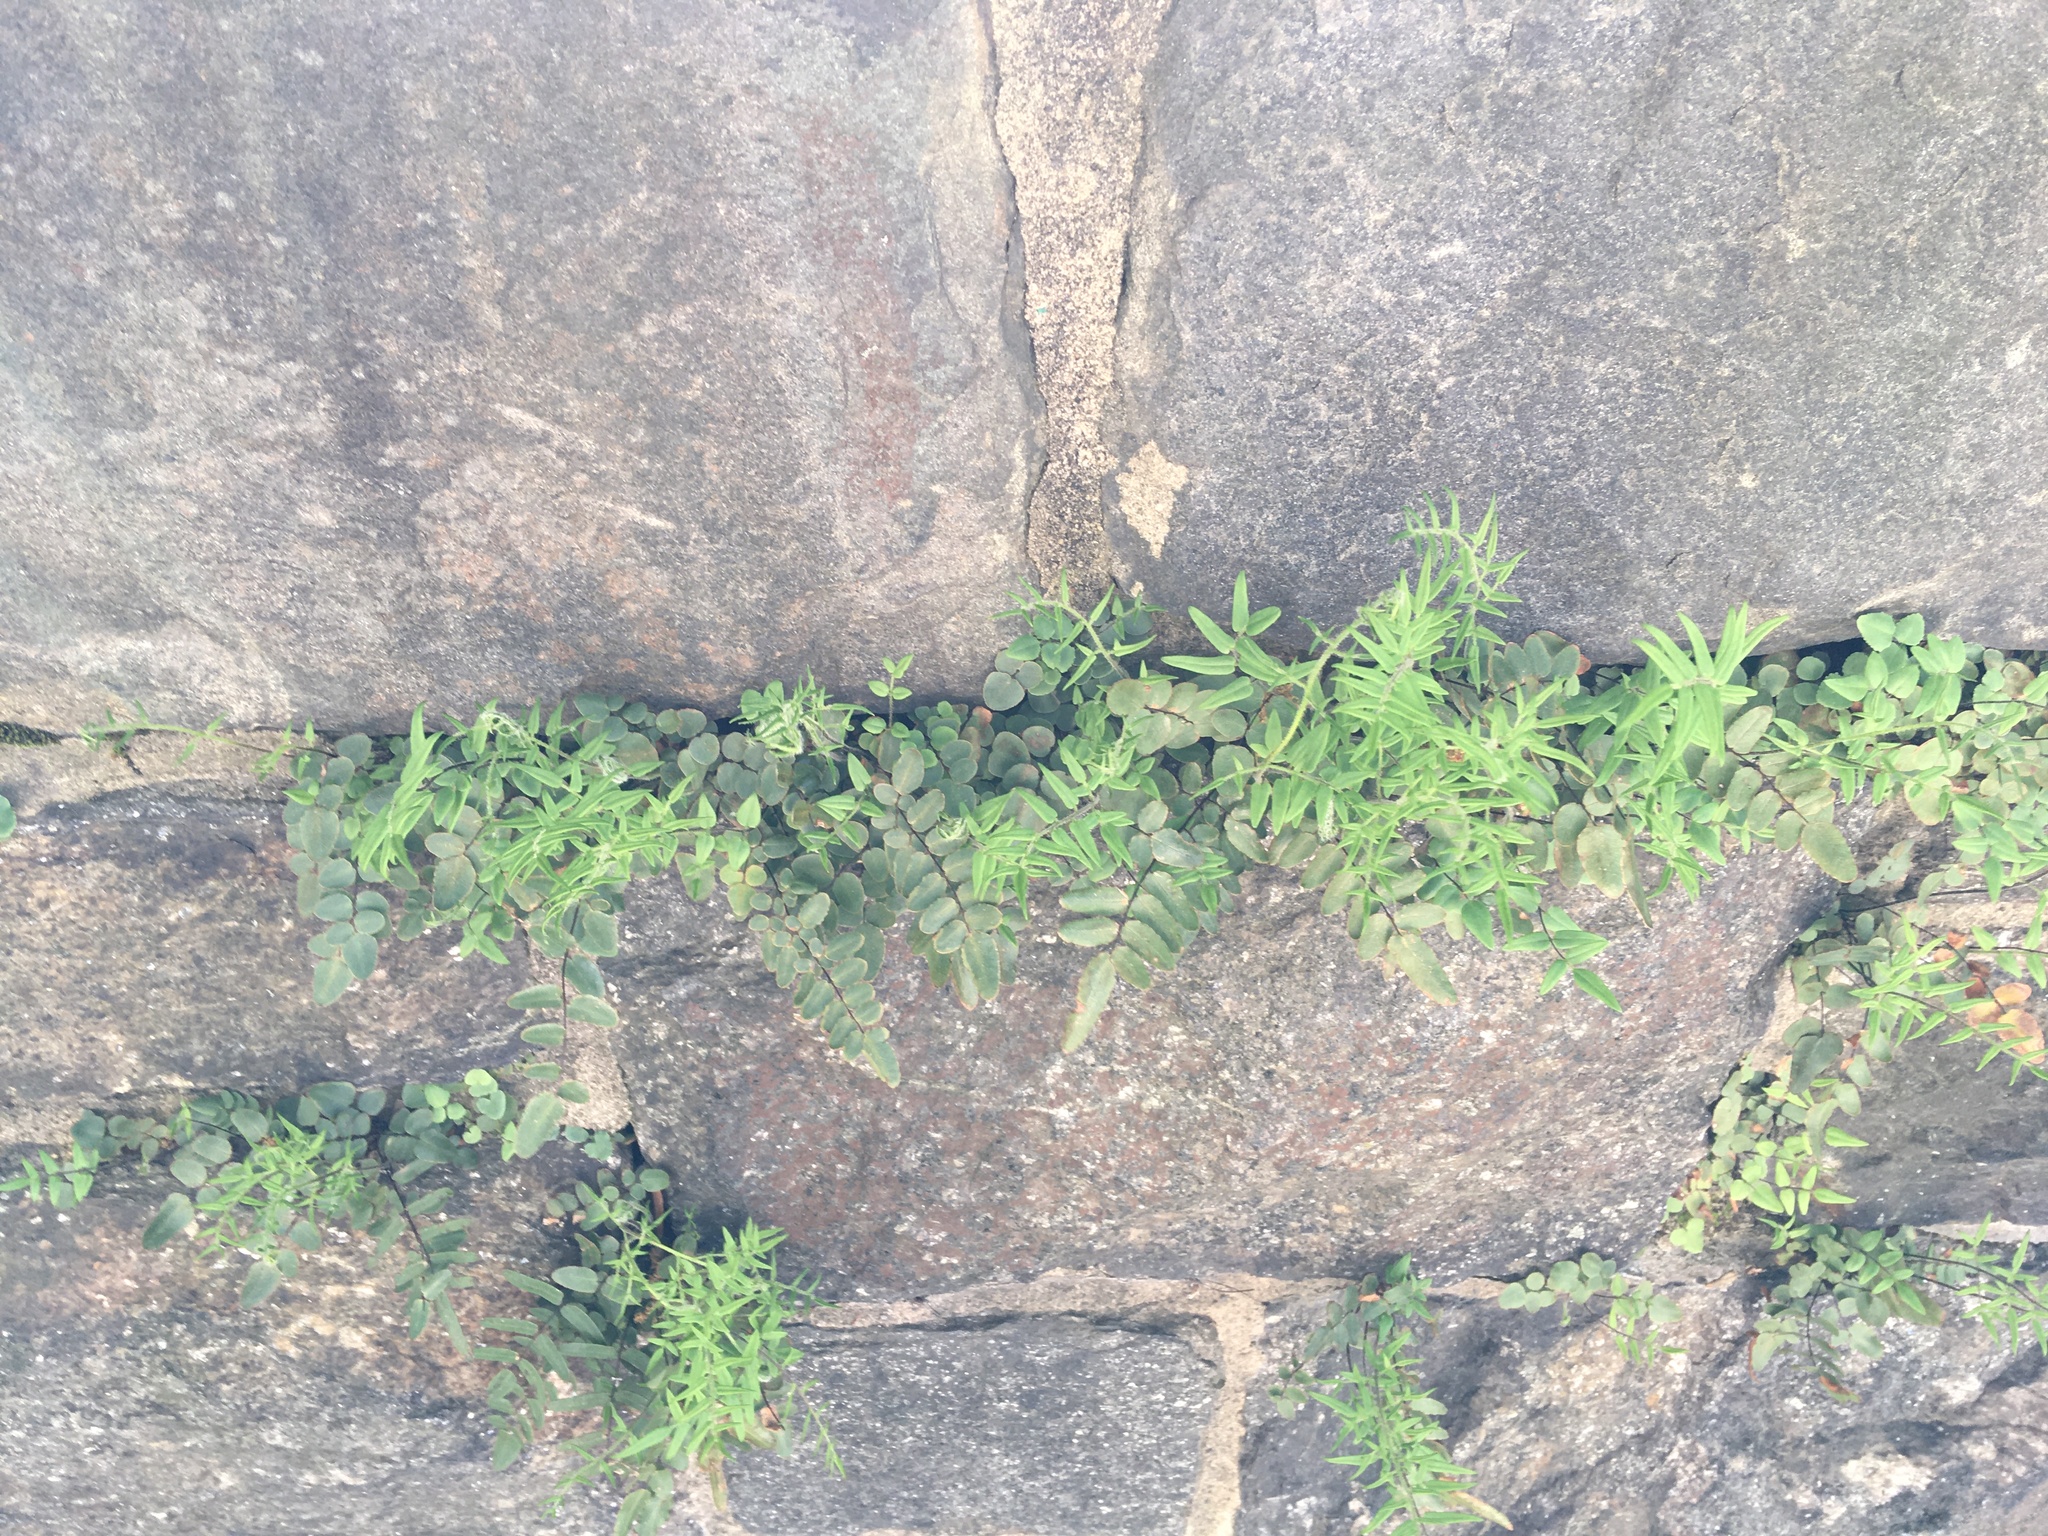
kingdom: Plantae
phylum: Tracheophyta
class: Polypodiopsida
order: Polypodiales
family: Pteridaceae
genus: Pellaea
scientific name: Pellaea atropurpurea
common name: Hairy cliffbrake
